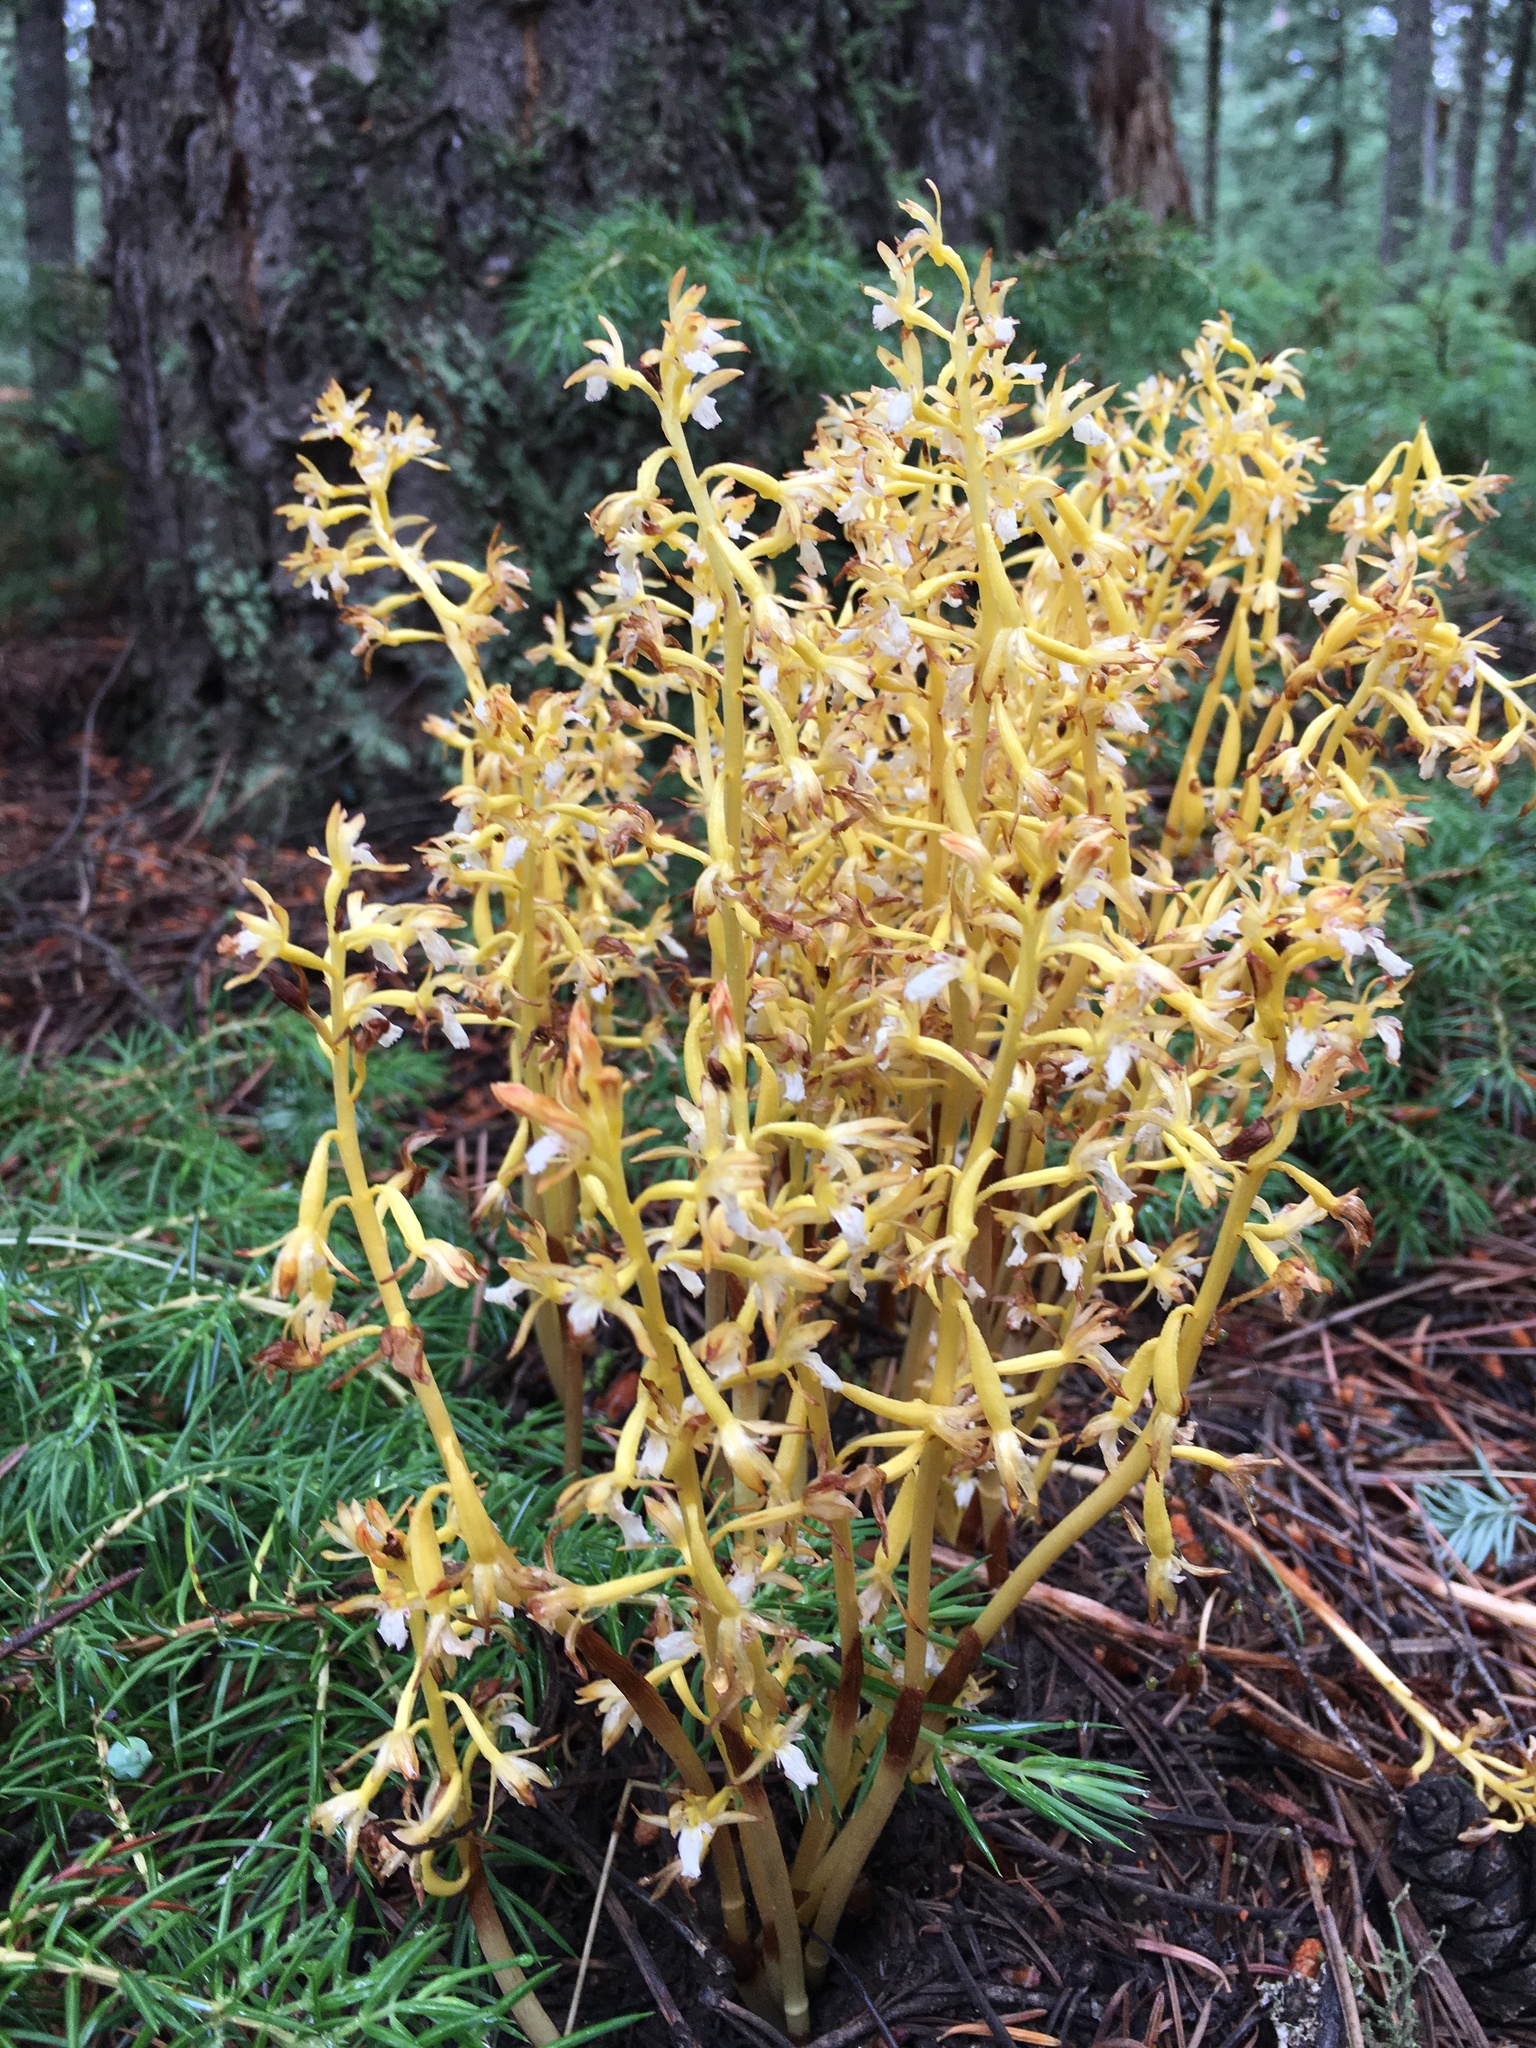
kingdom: Plantae
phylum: Tracheophyta
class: Liliopsida
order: Asparagales
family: Orchidaceae
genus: Corallorhiza
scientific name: Corallorhiza maculata
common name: Spotted coralroot
